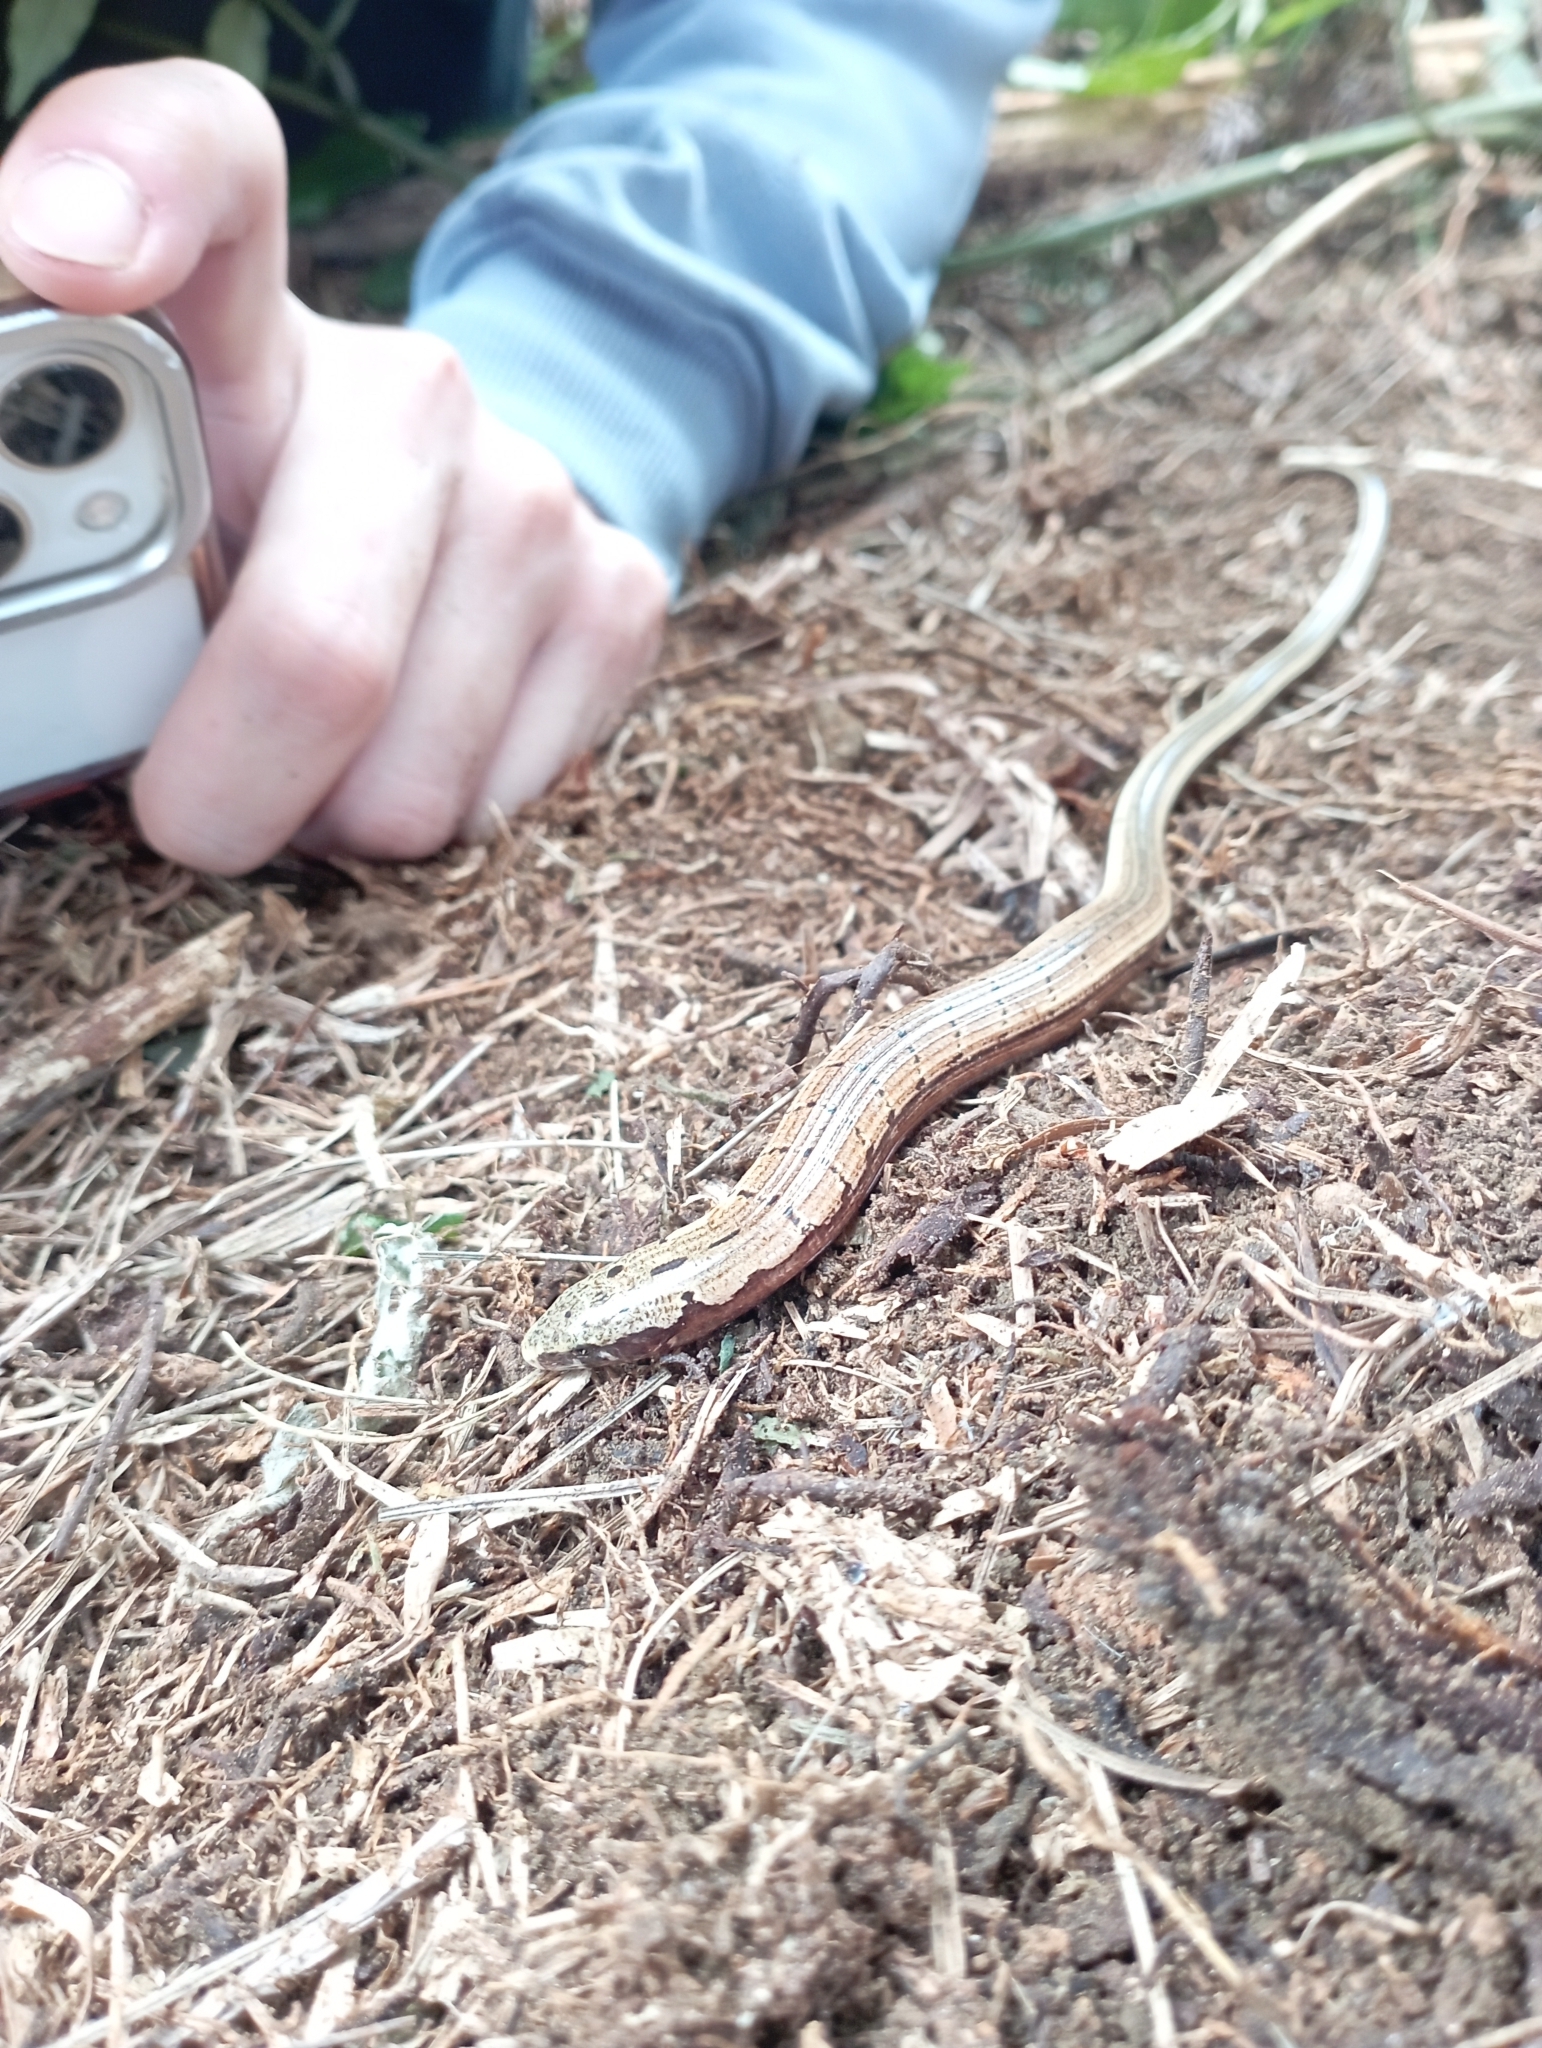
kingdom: Animalia
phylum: Chordata
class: Squamata
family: Anguidae
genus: Dopasia
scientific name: Dopasia harti
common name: Hart's glass lizard
